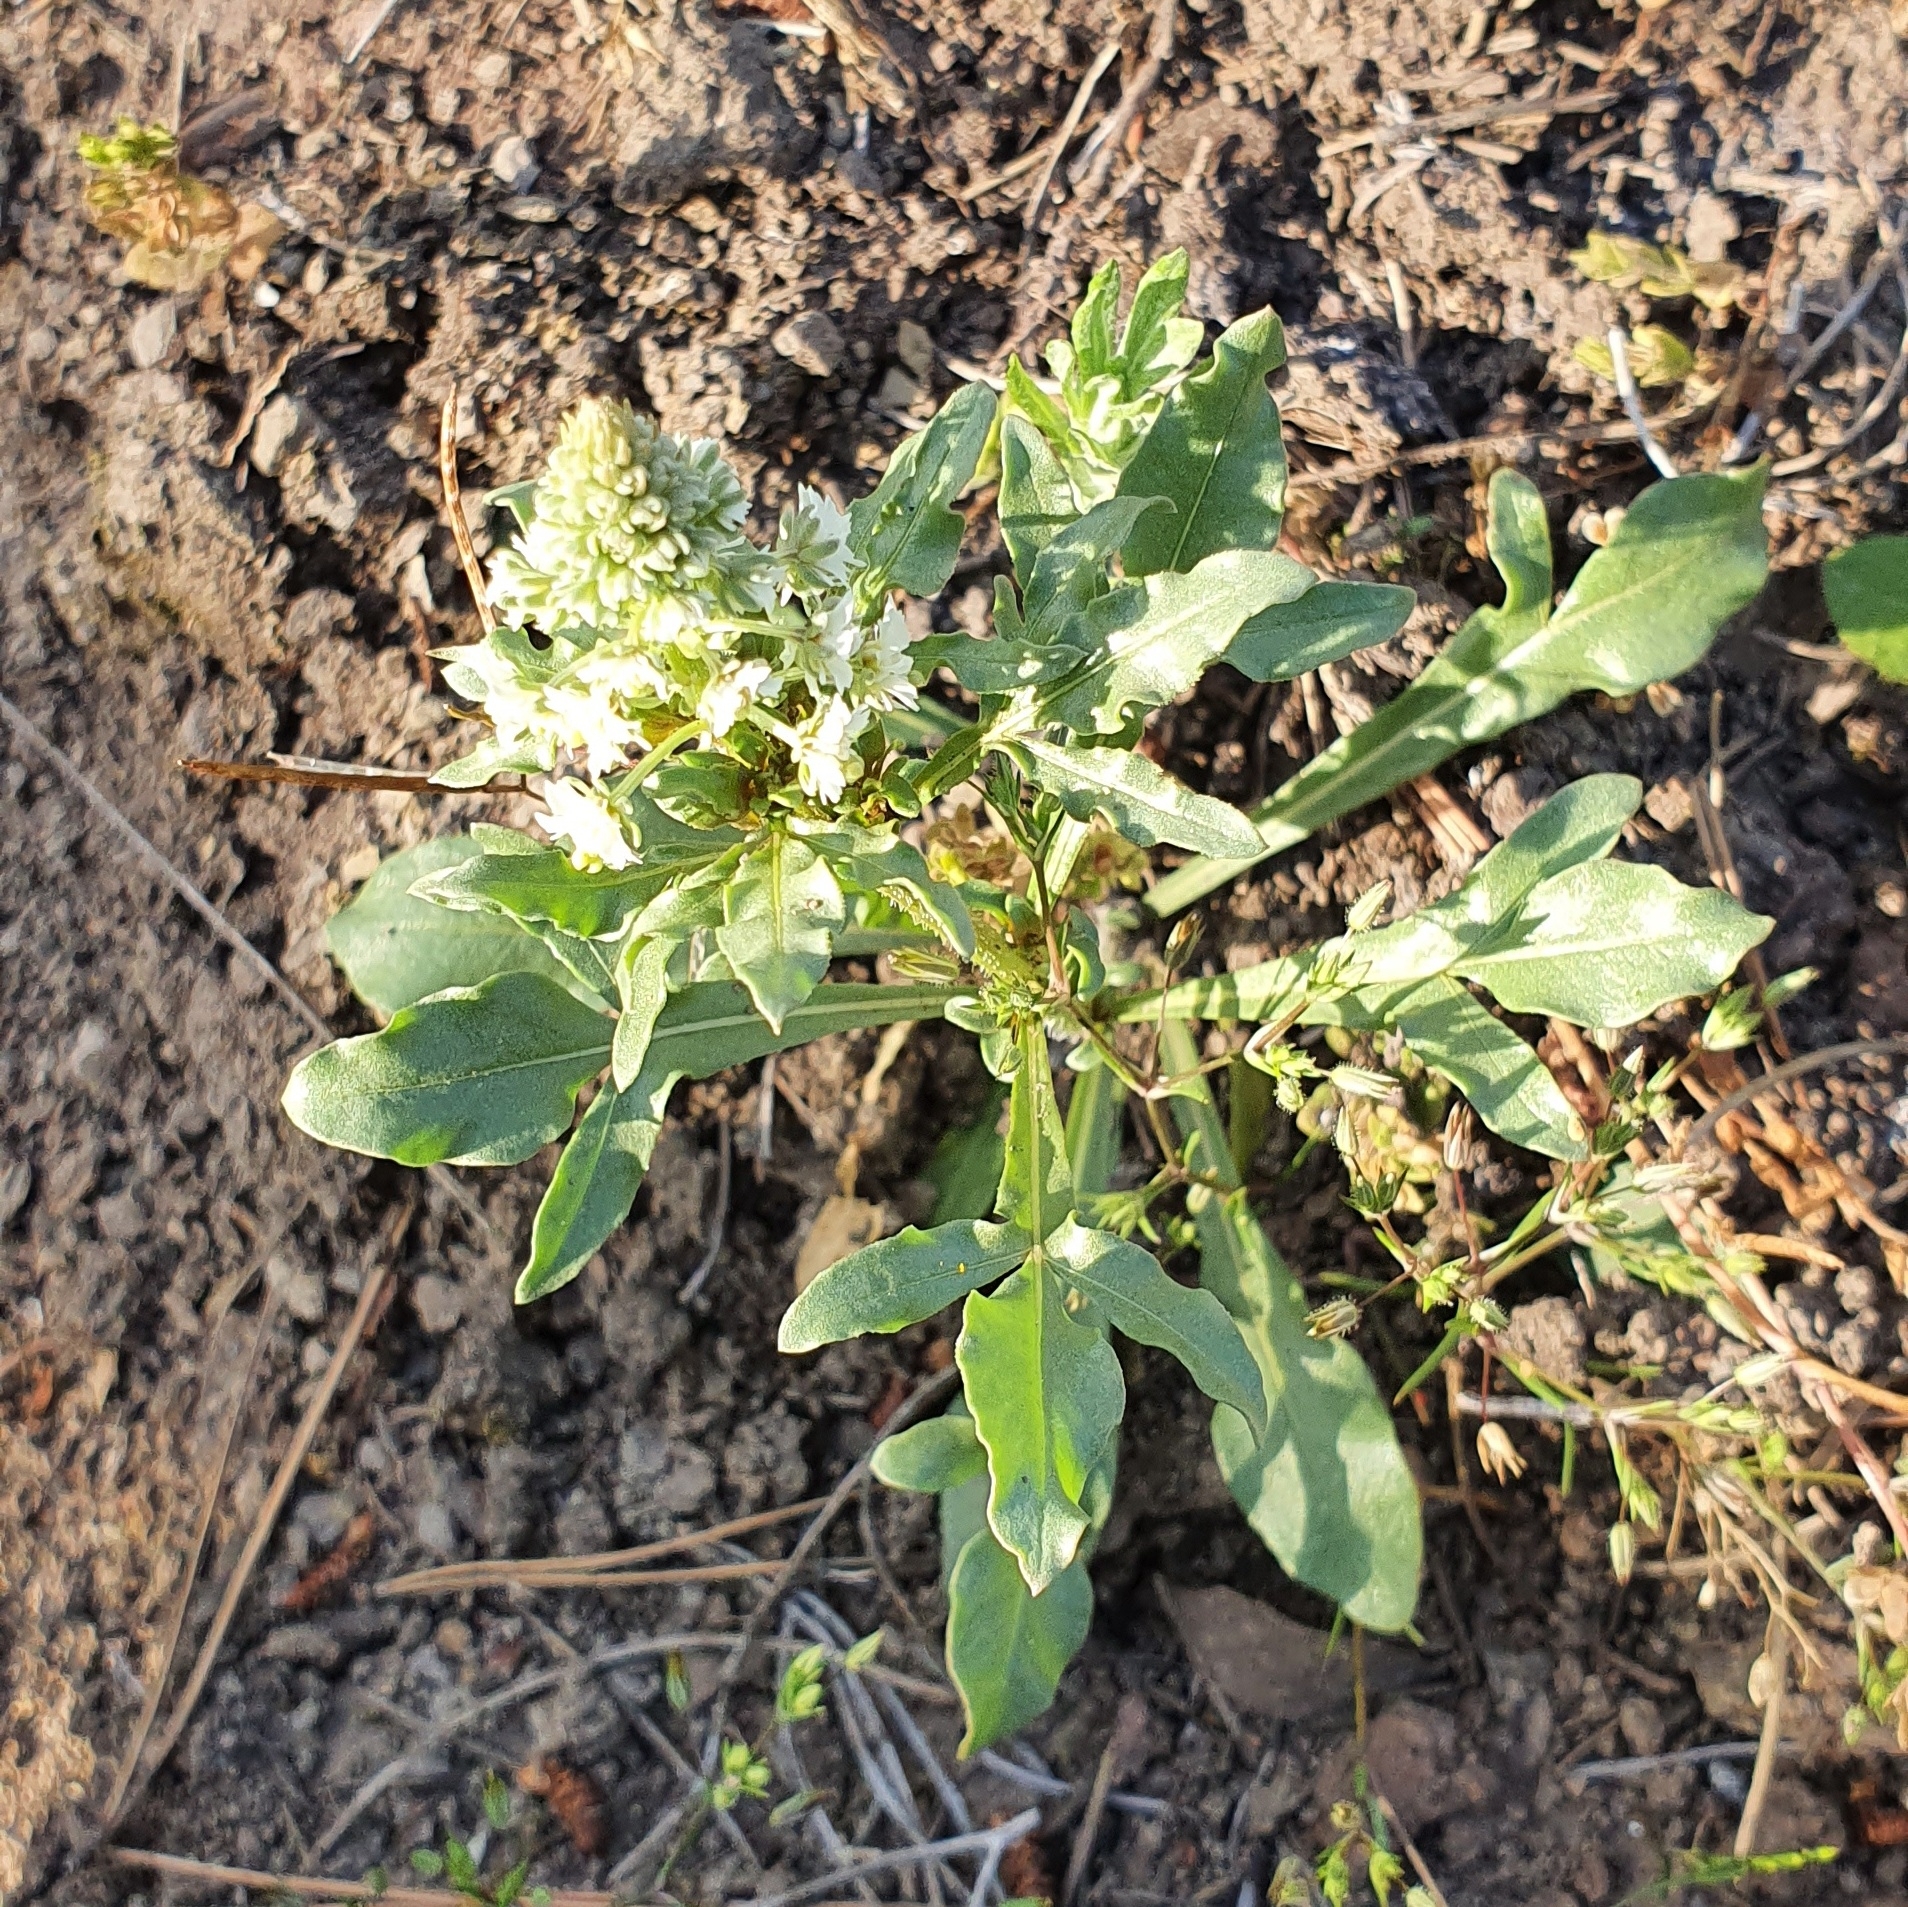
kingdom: Plantae
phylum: Tracheophyta
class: Magnoliopsida
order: Brassicales
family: Resedaceae
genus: Reseda
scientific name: Reseda duriaeana
